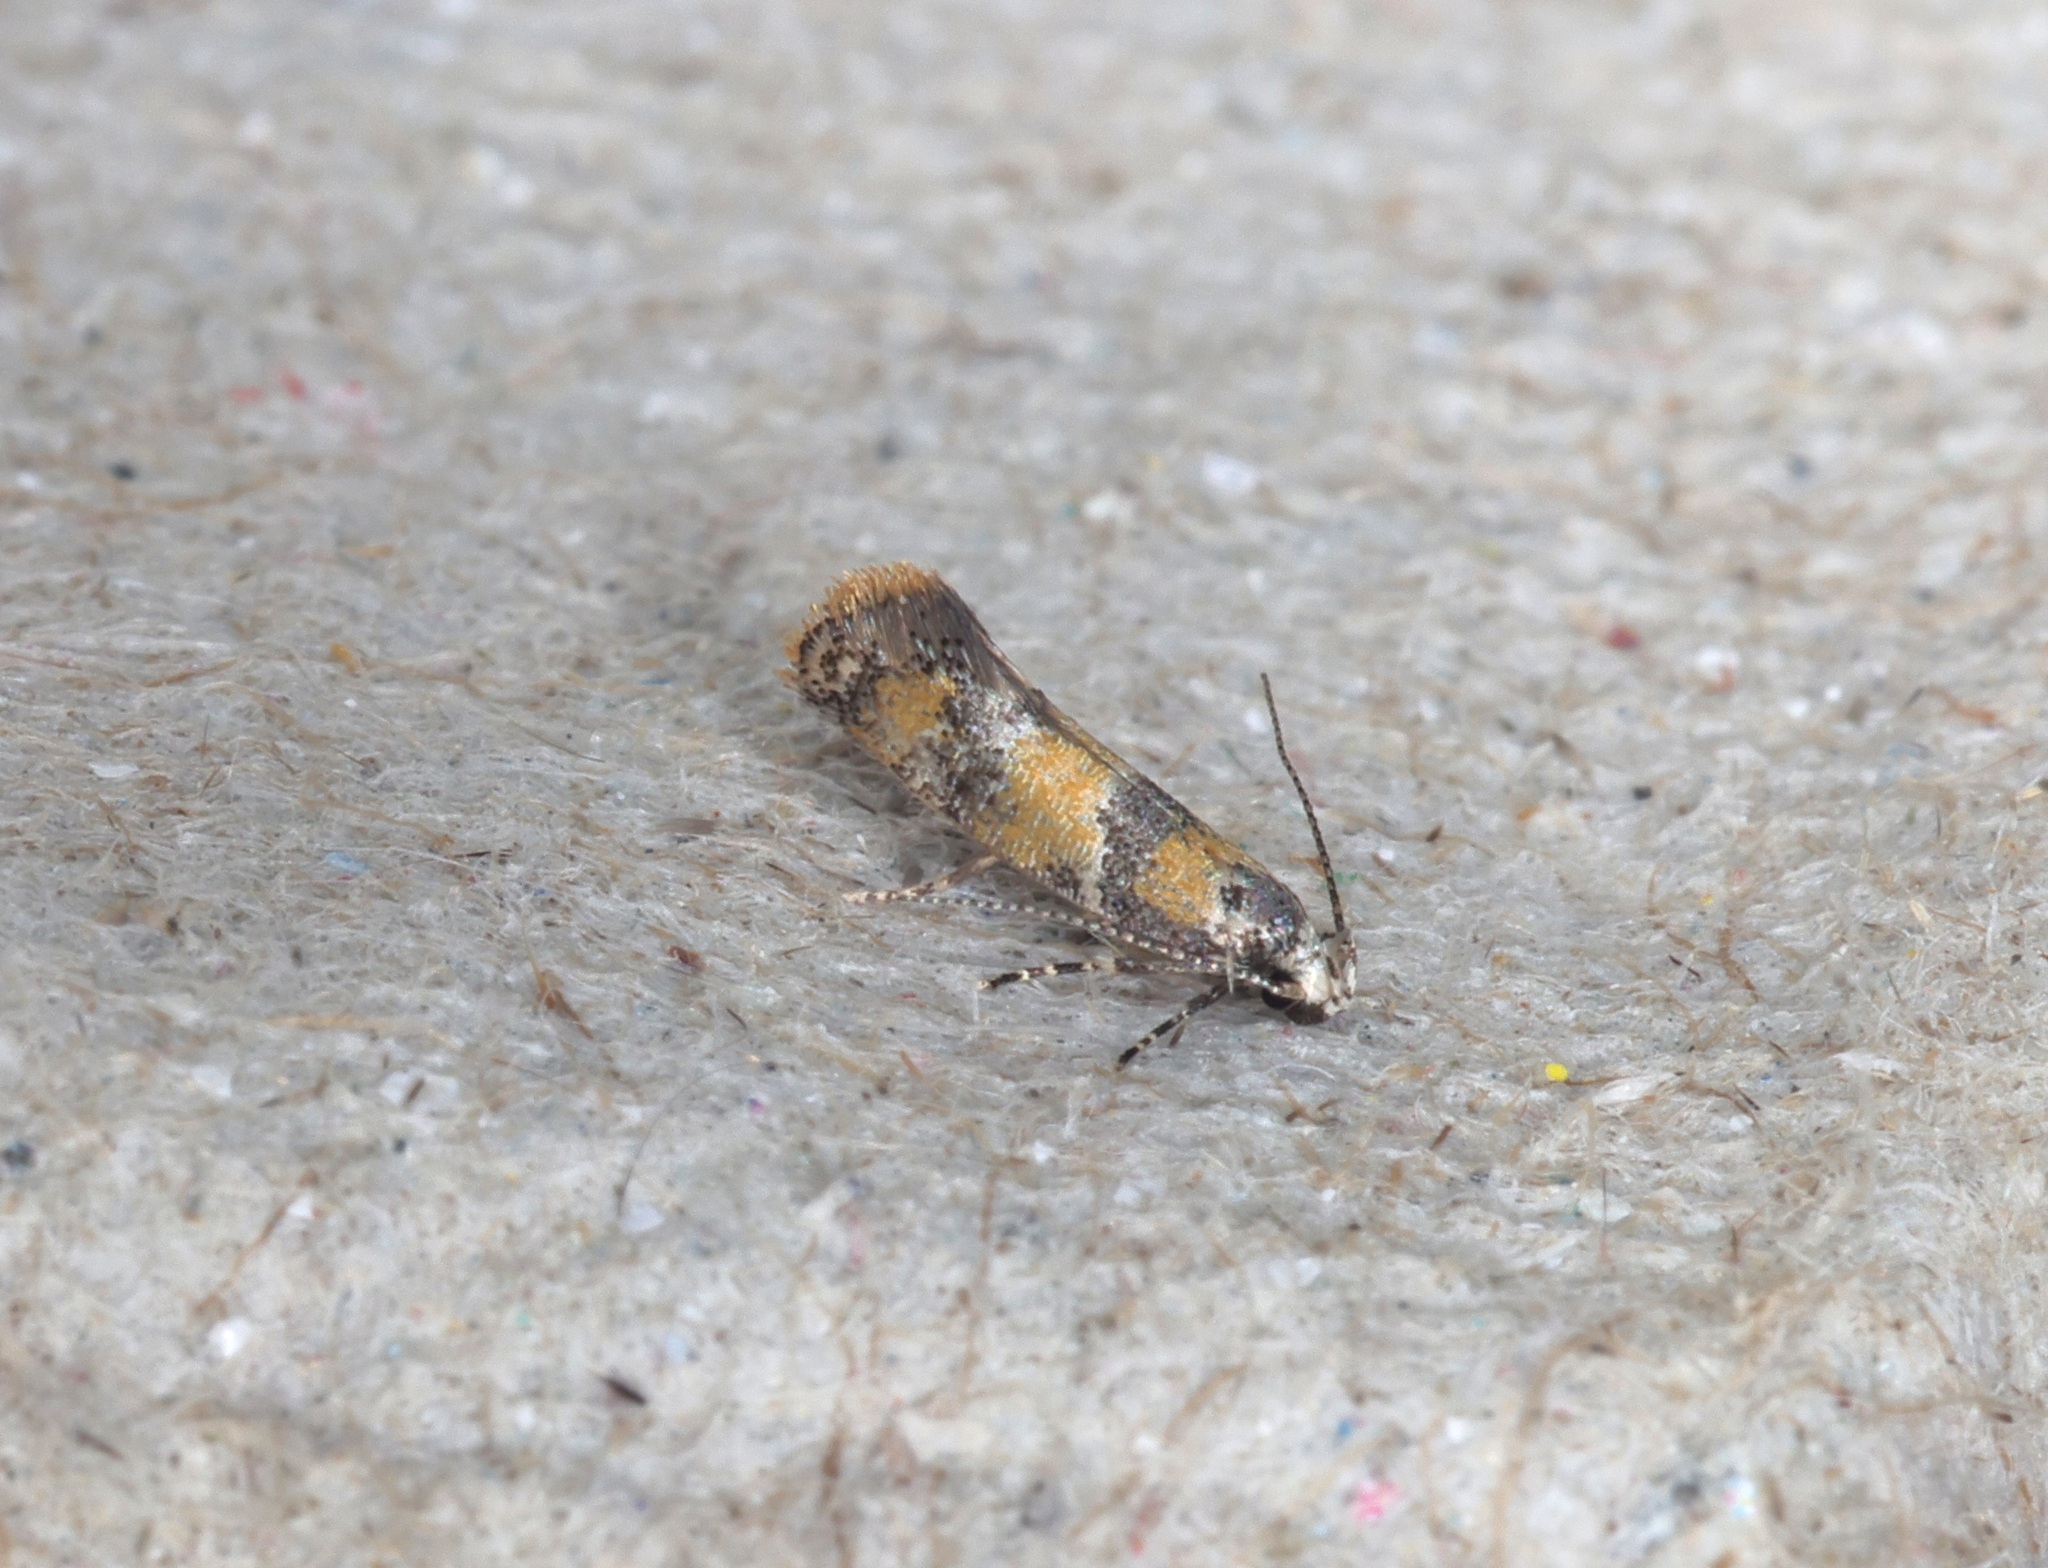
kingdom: Animalia
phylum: Arthropoda
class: Insecta
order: Lepidoptera
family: Oecophoridae
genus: Promalactis
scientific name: Promalactis lobatifera
